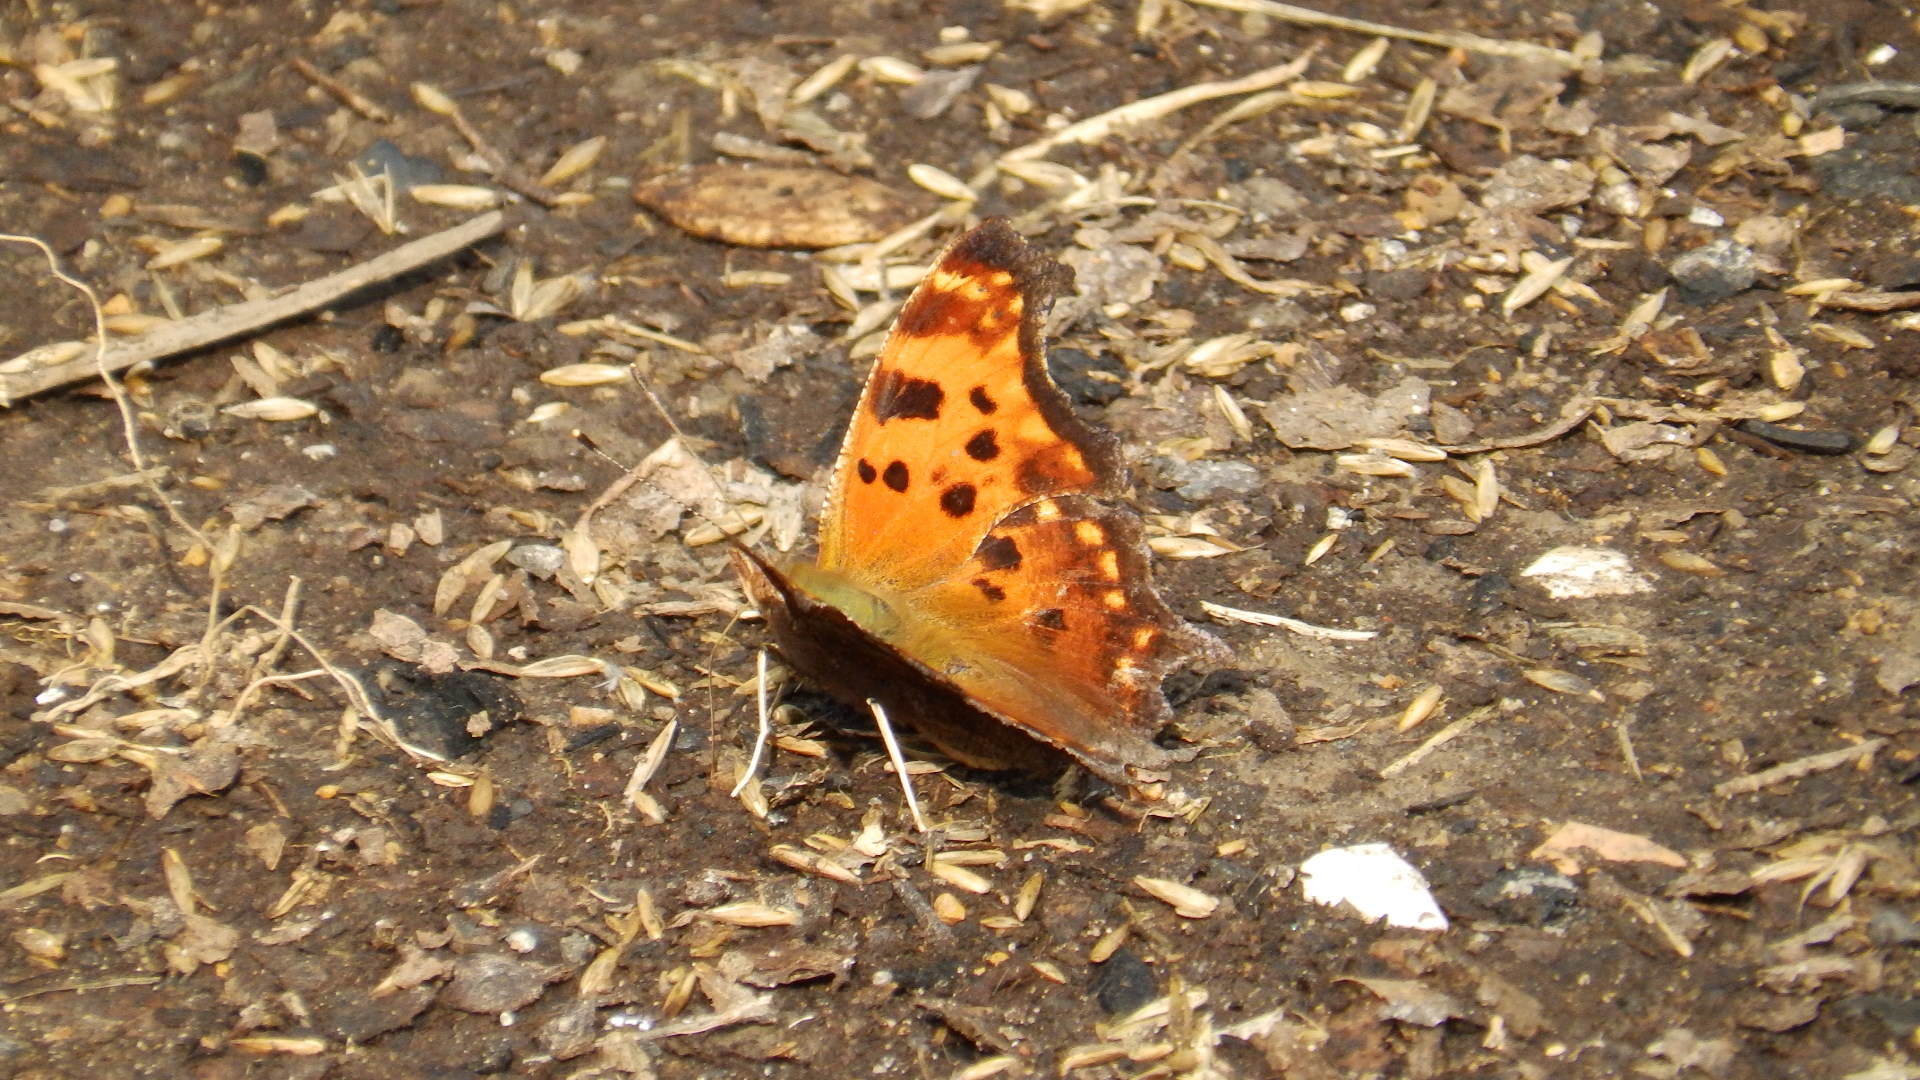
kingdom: Animalia
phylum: Arthropoda
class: Insecta
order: Lepidoptera
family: Nymphalidae
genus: Polygonia
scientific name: Polygonia comma
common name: Eastern comma
